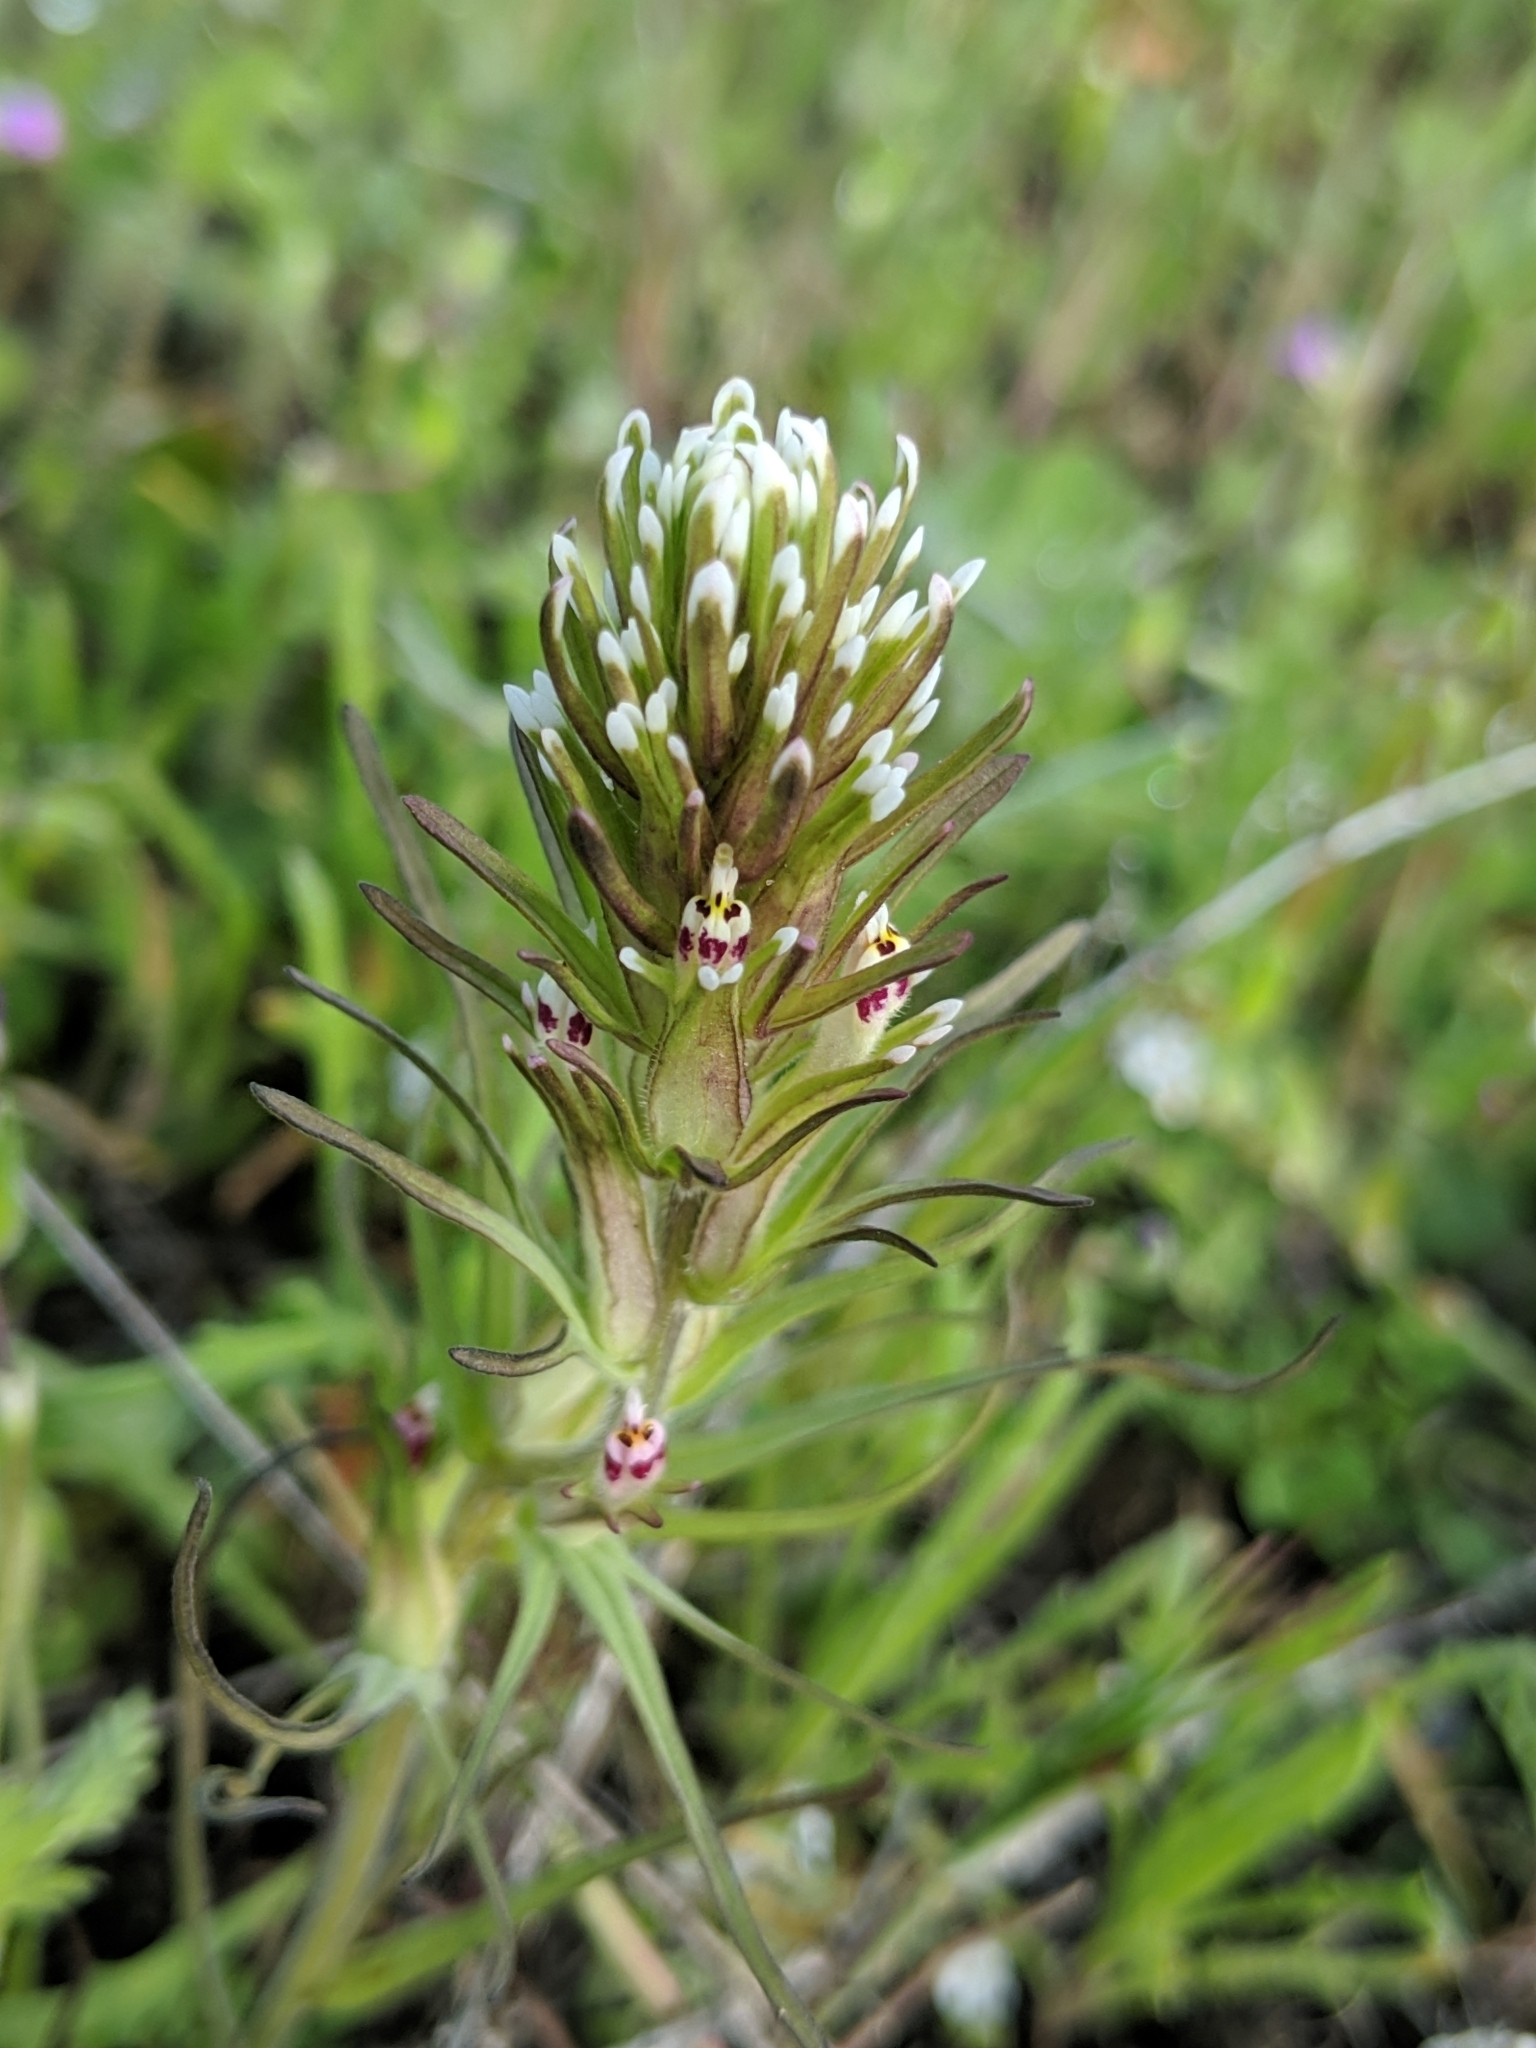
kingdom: Plantae
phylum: Tracheophyta
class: Magnoliopsida
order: Lamiales
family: Orobanchaceae
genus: Castilleja
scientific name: Castilleja attenuata
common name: Valley tassels
